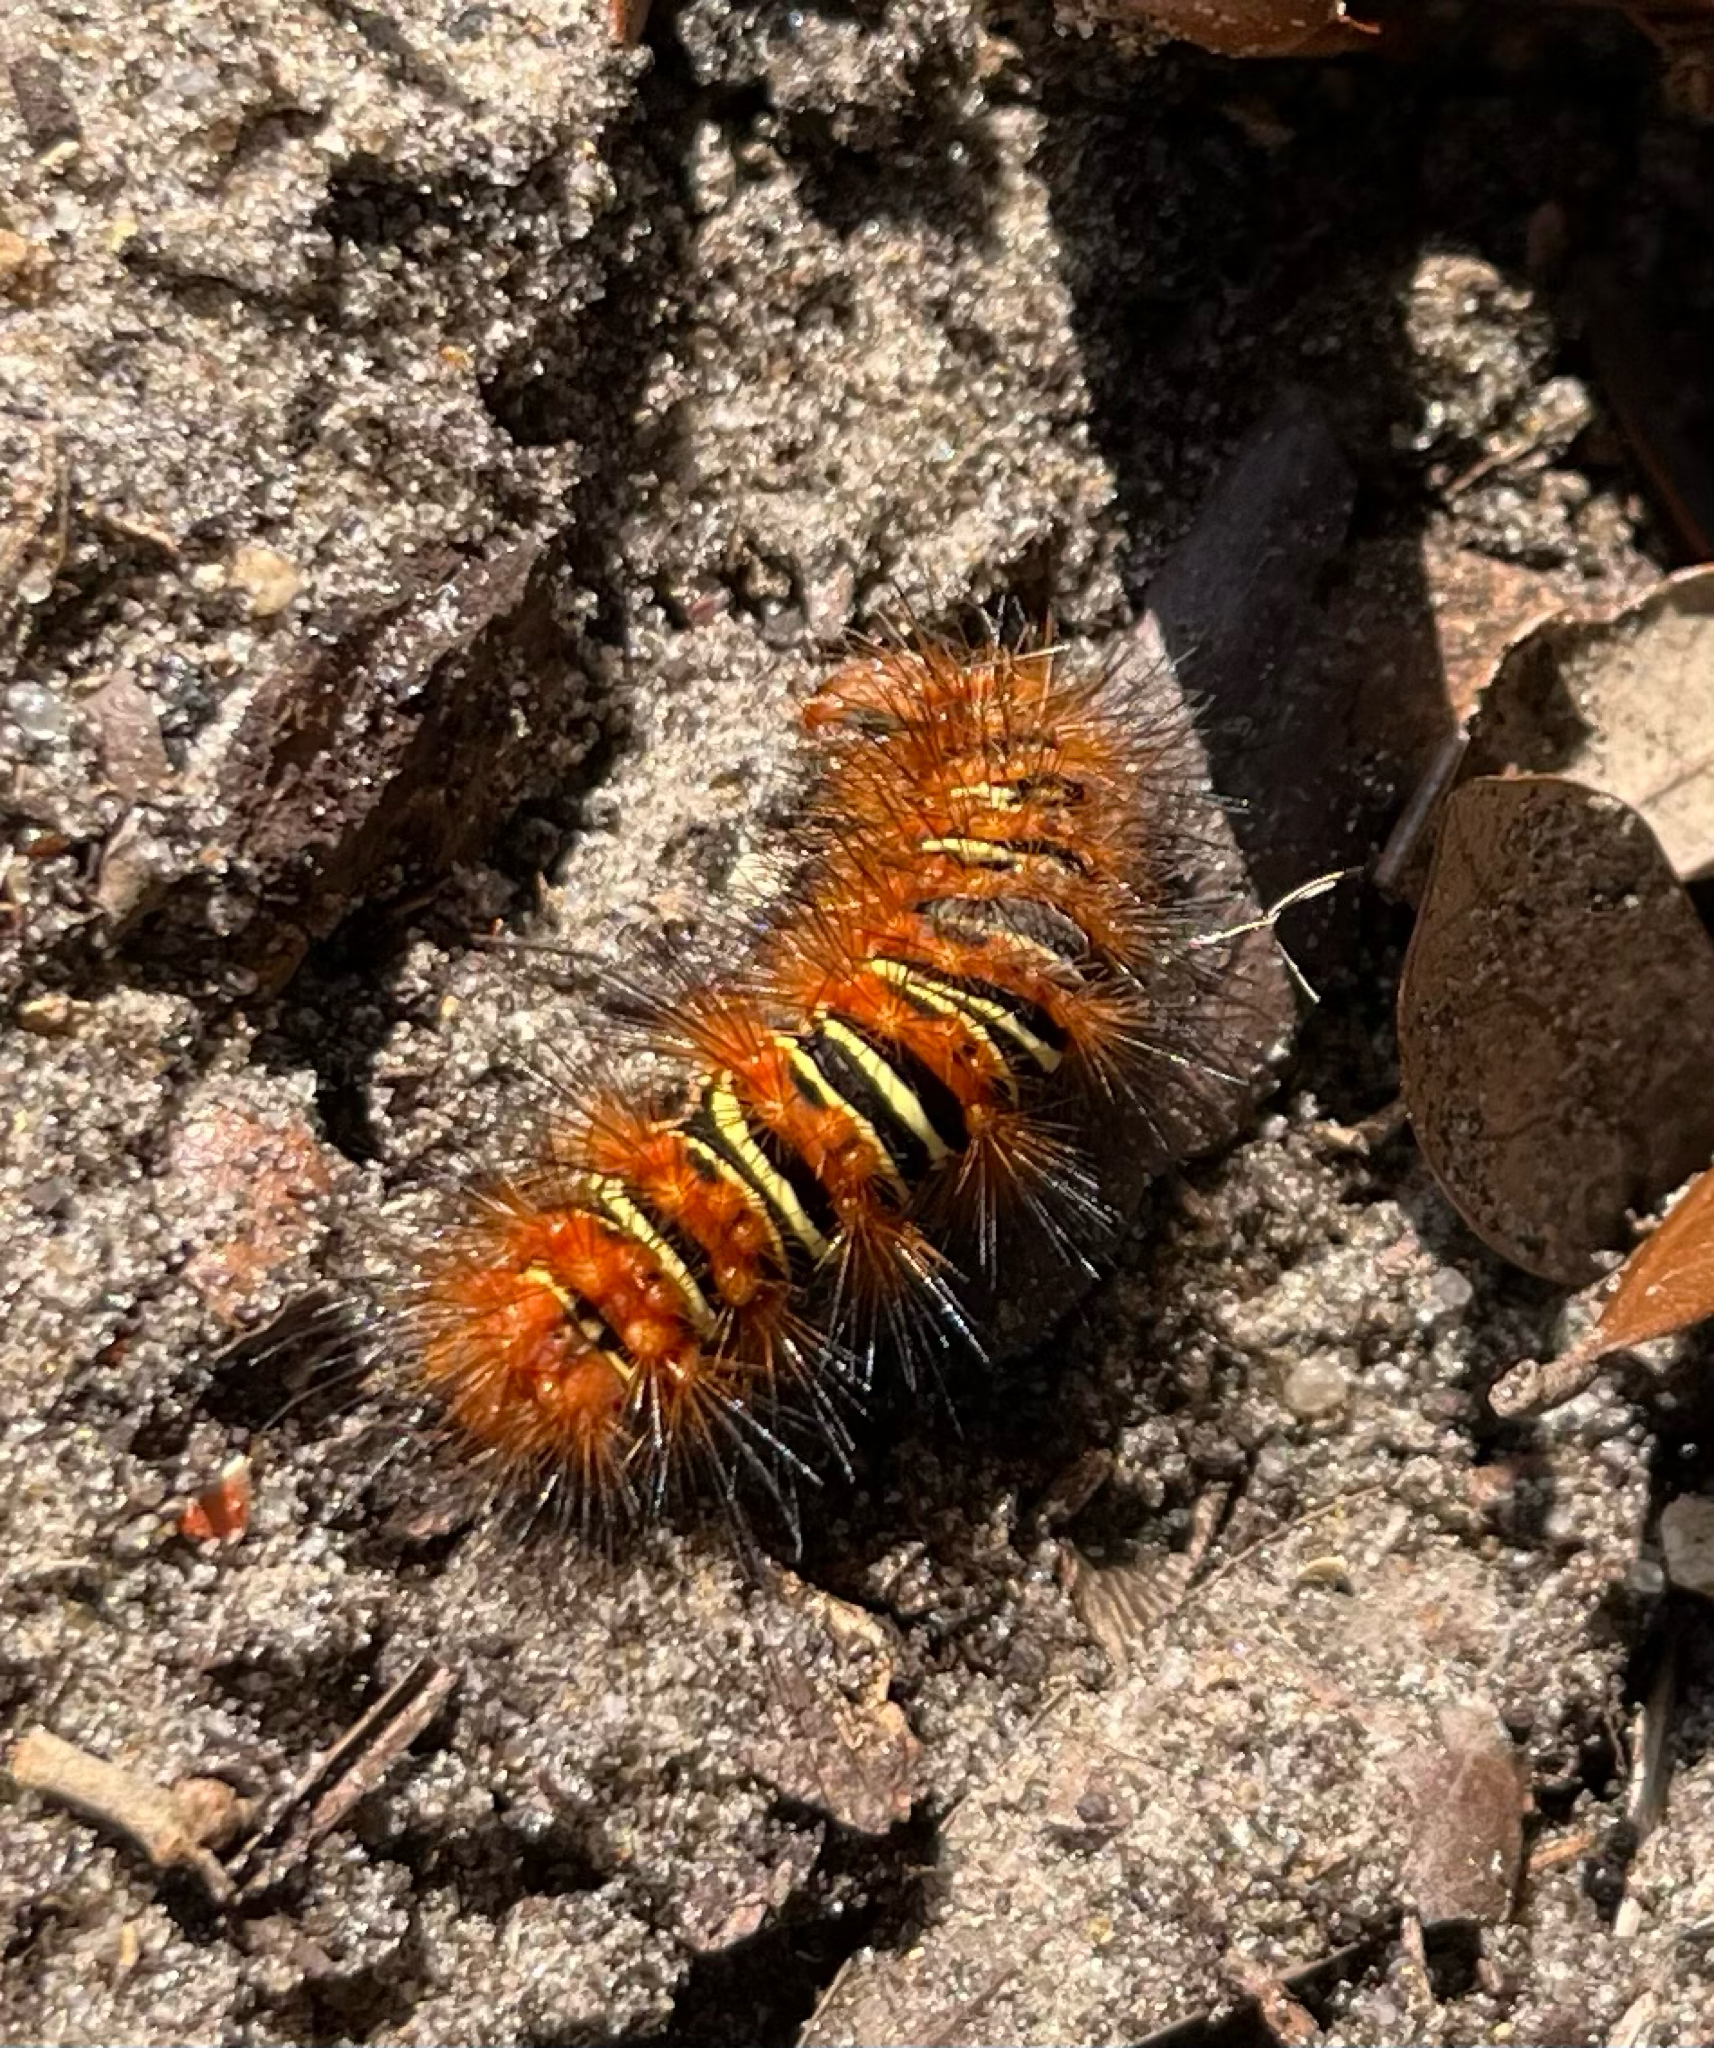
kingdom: Animalia
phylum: Arthropoda
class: Insecta
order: Lepidoptera
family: Erebidae
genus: Seirarctia
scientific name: Seirarctia echo
